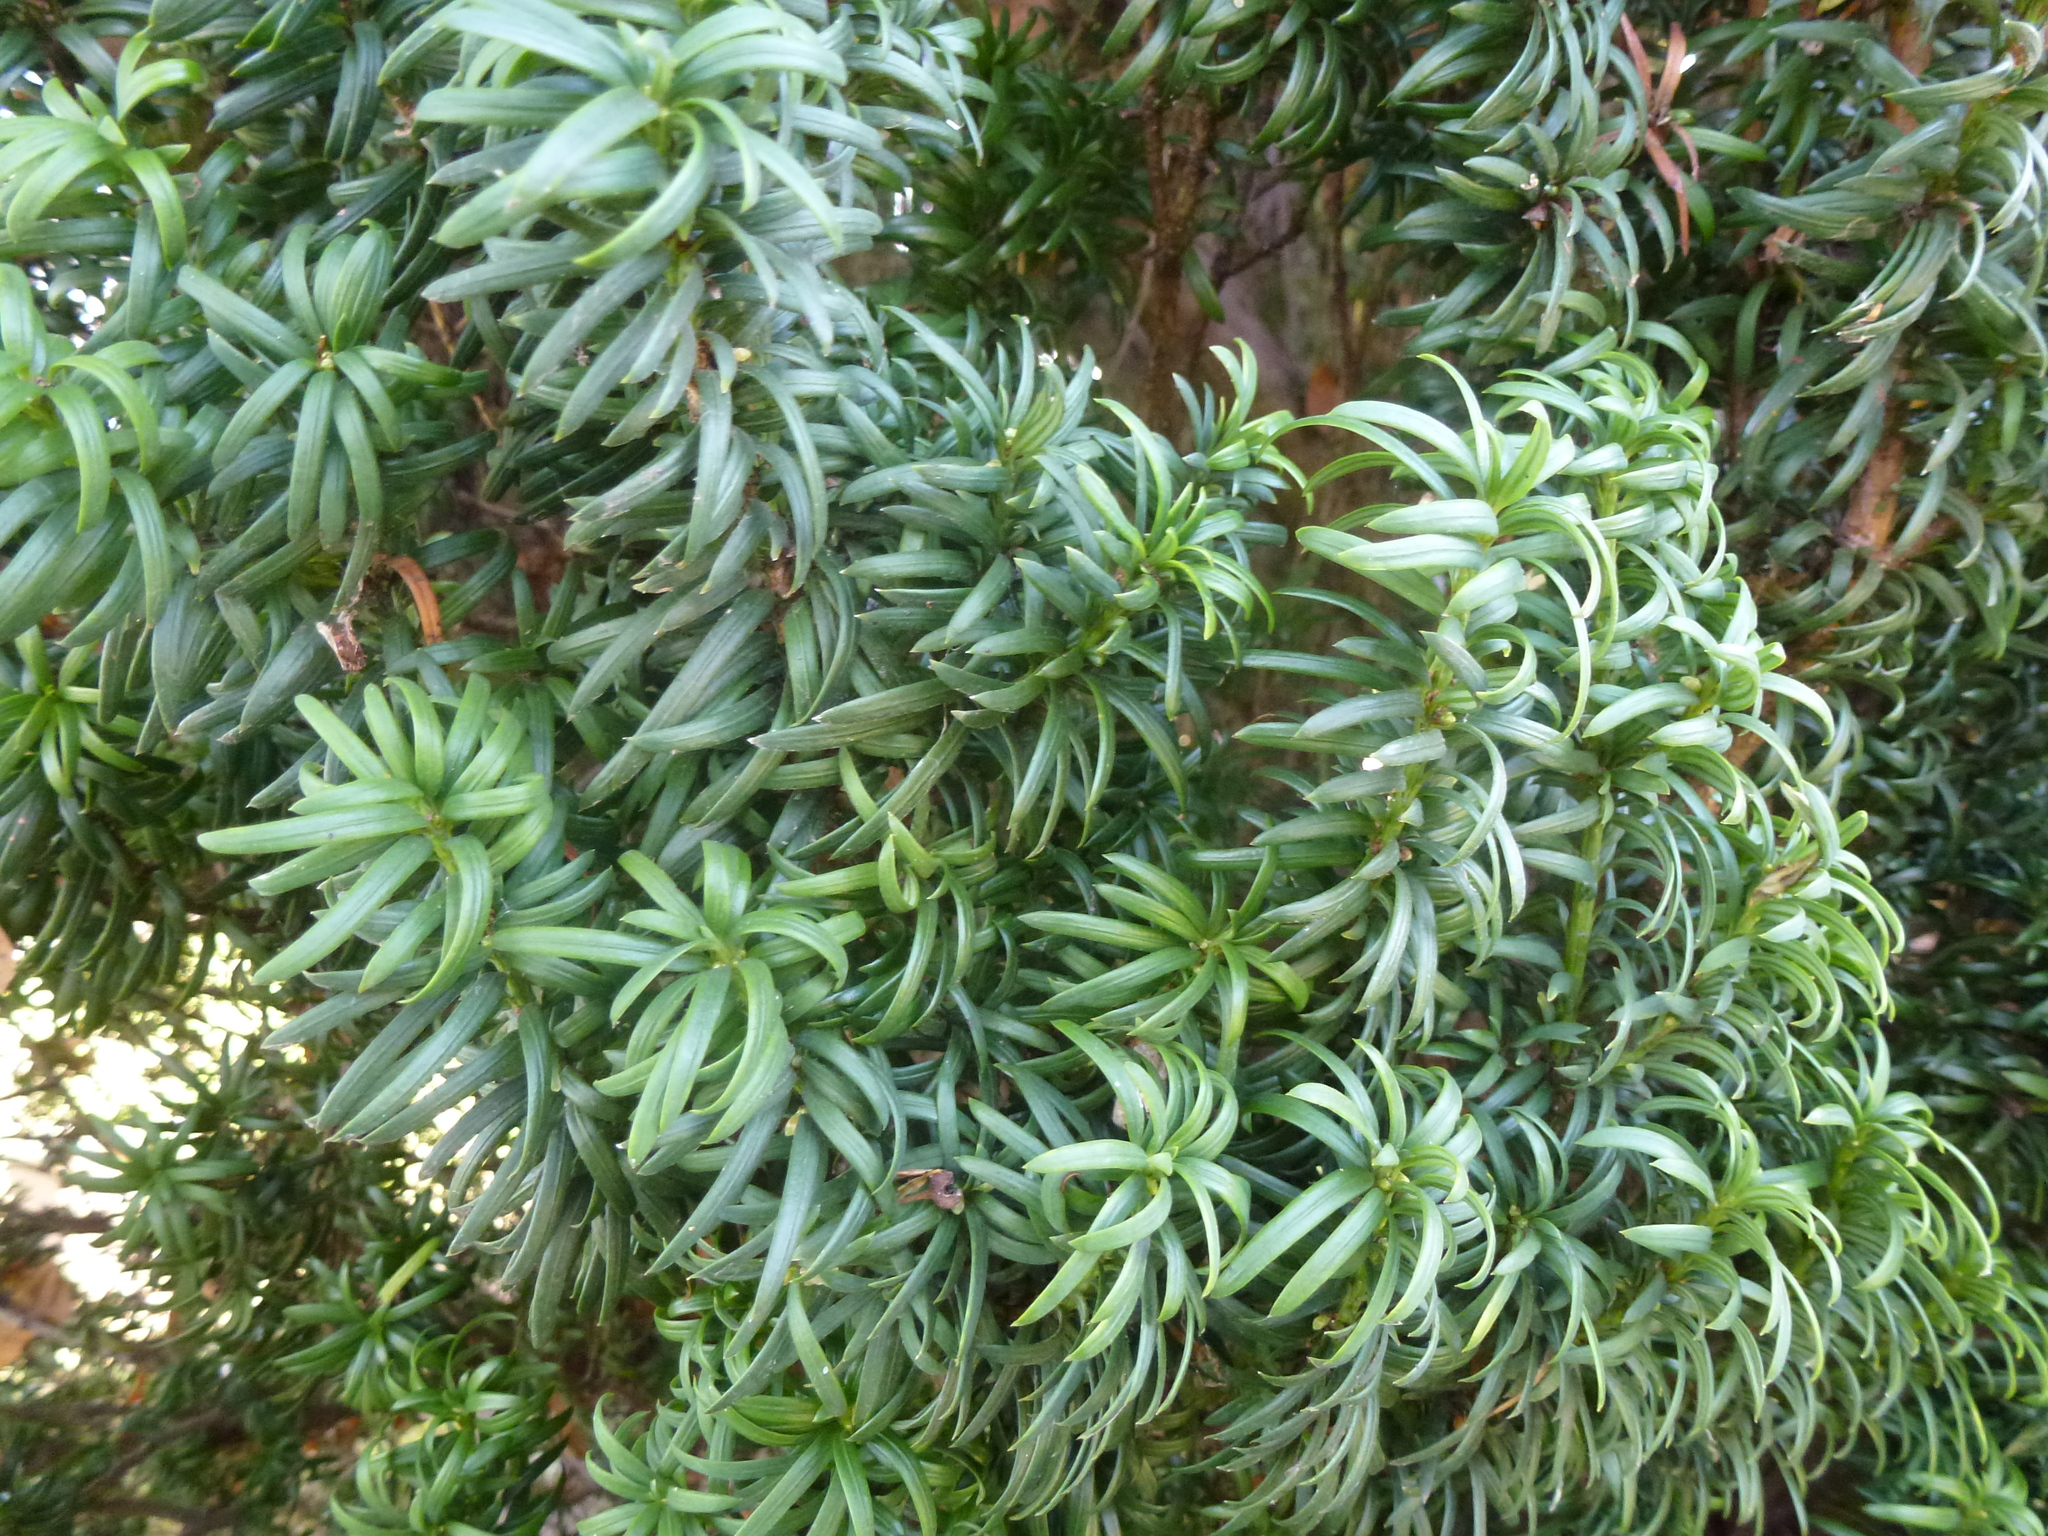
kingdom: Plantae
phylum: Tracheophyta
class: Pinopsida
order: Pinales
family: Taxaceae
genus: Taxus
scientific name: Taxus baccata
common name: Yew
